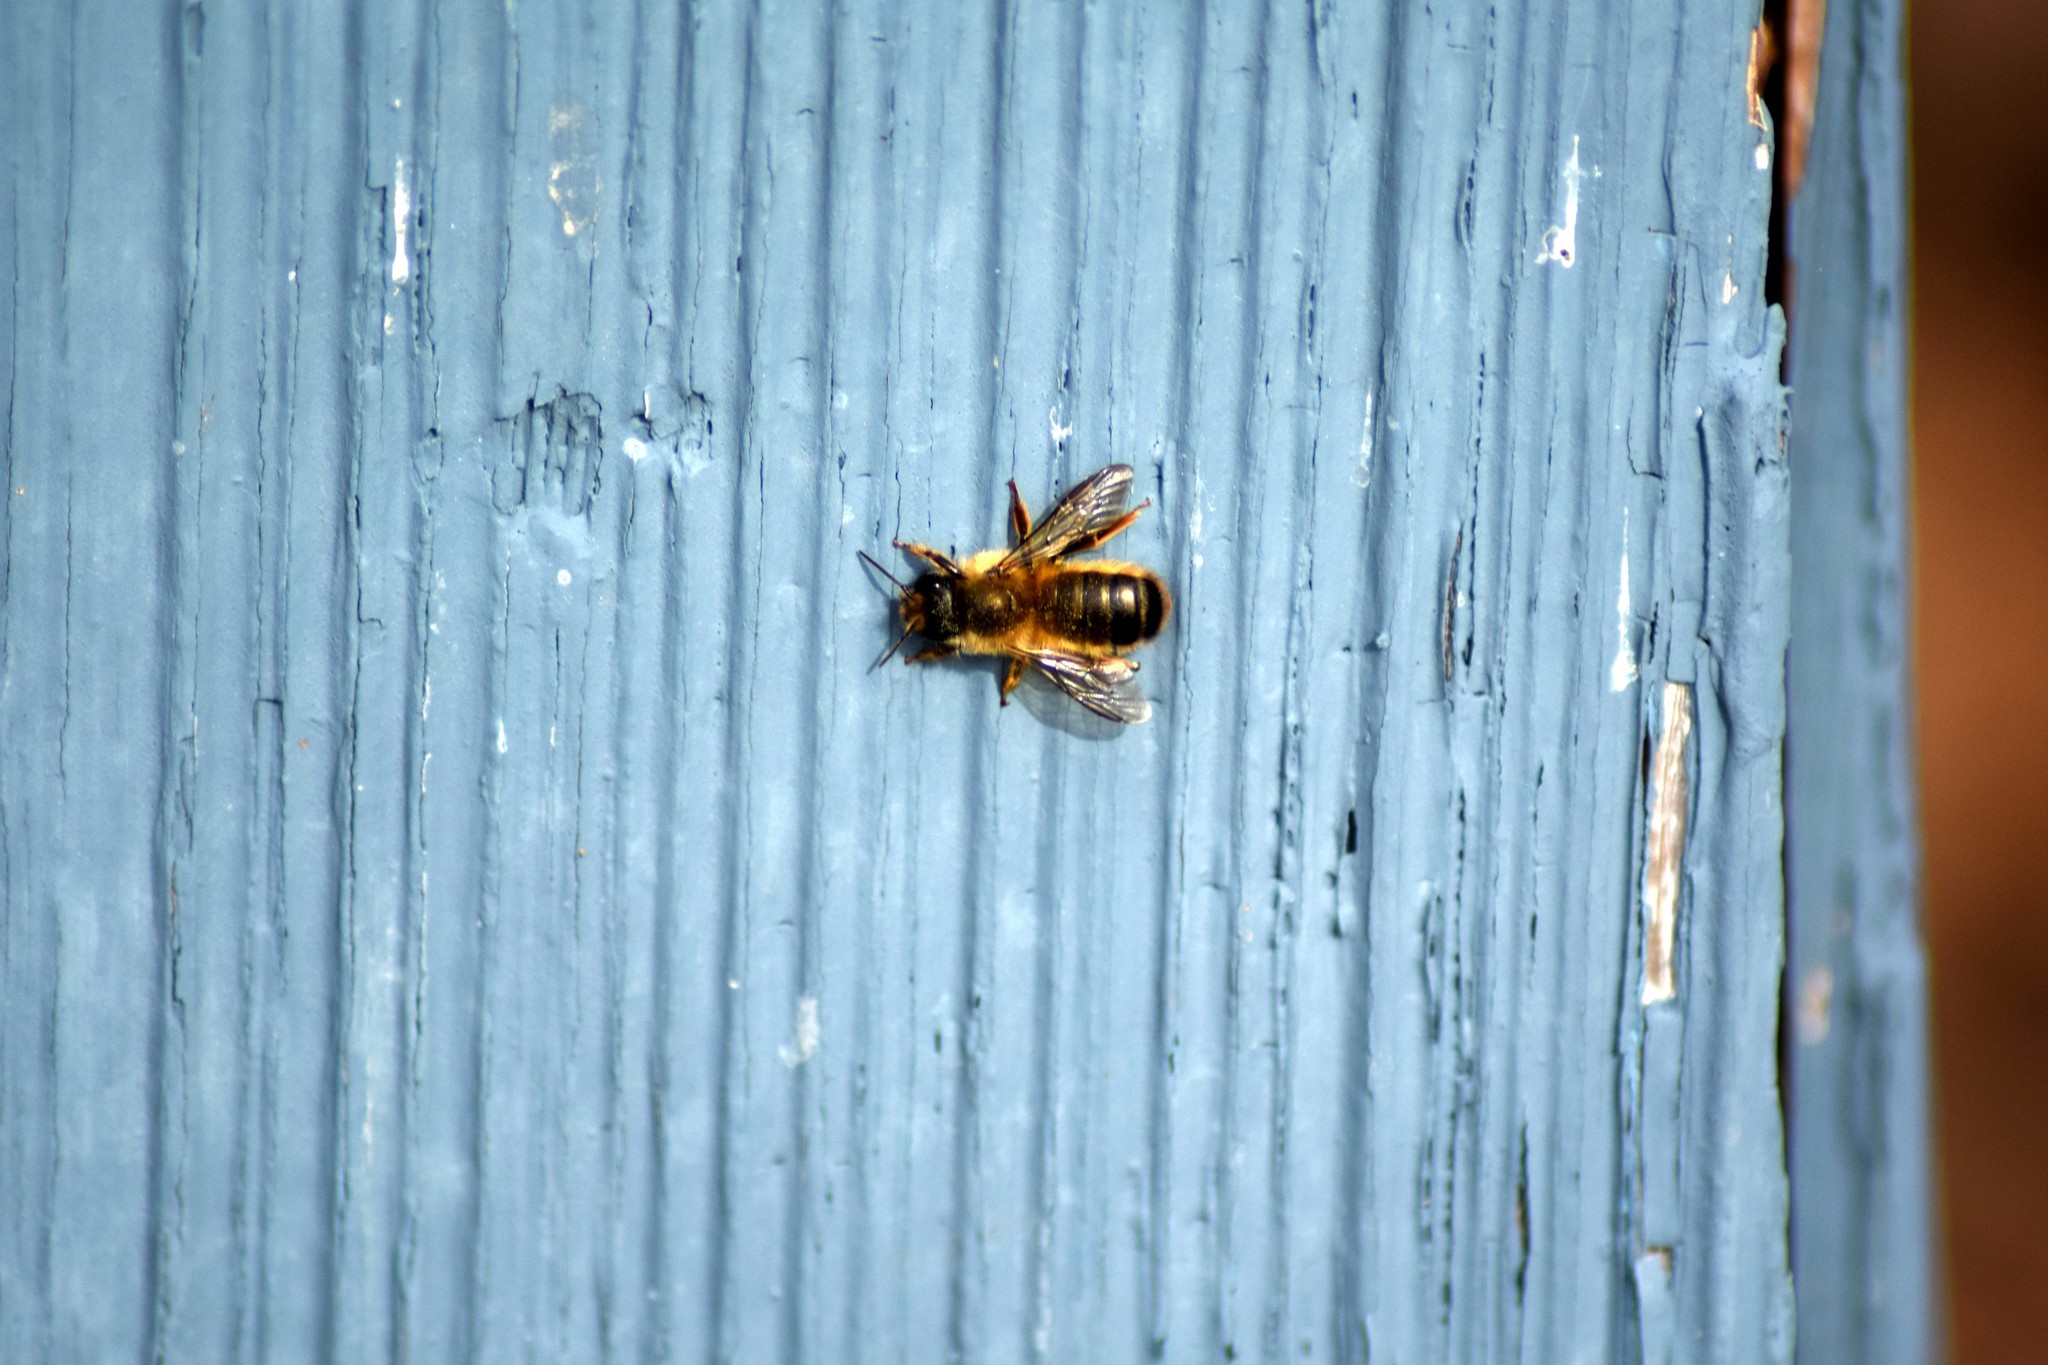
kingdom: Animalia
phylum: Arthropoda
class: Insecta
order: Hymenoptera
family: Megachilidae
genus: Osmia
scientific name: Osmia taurus
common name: Taurus mason bee
